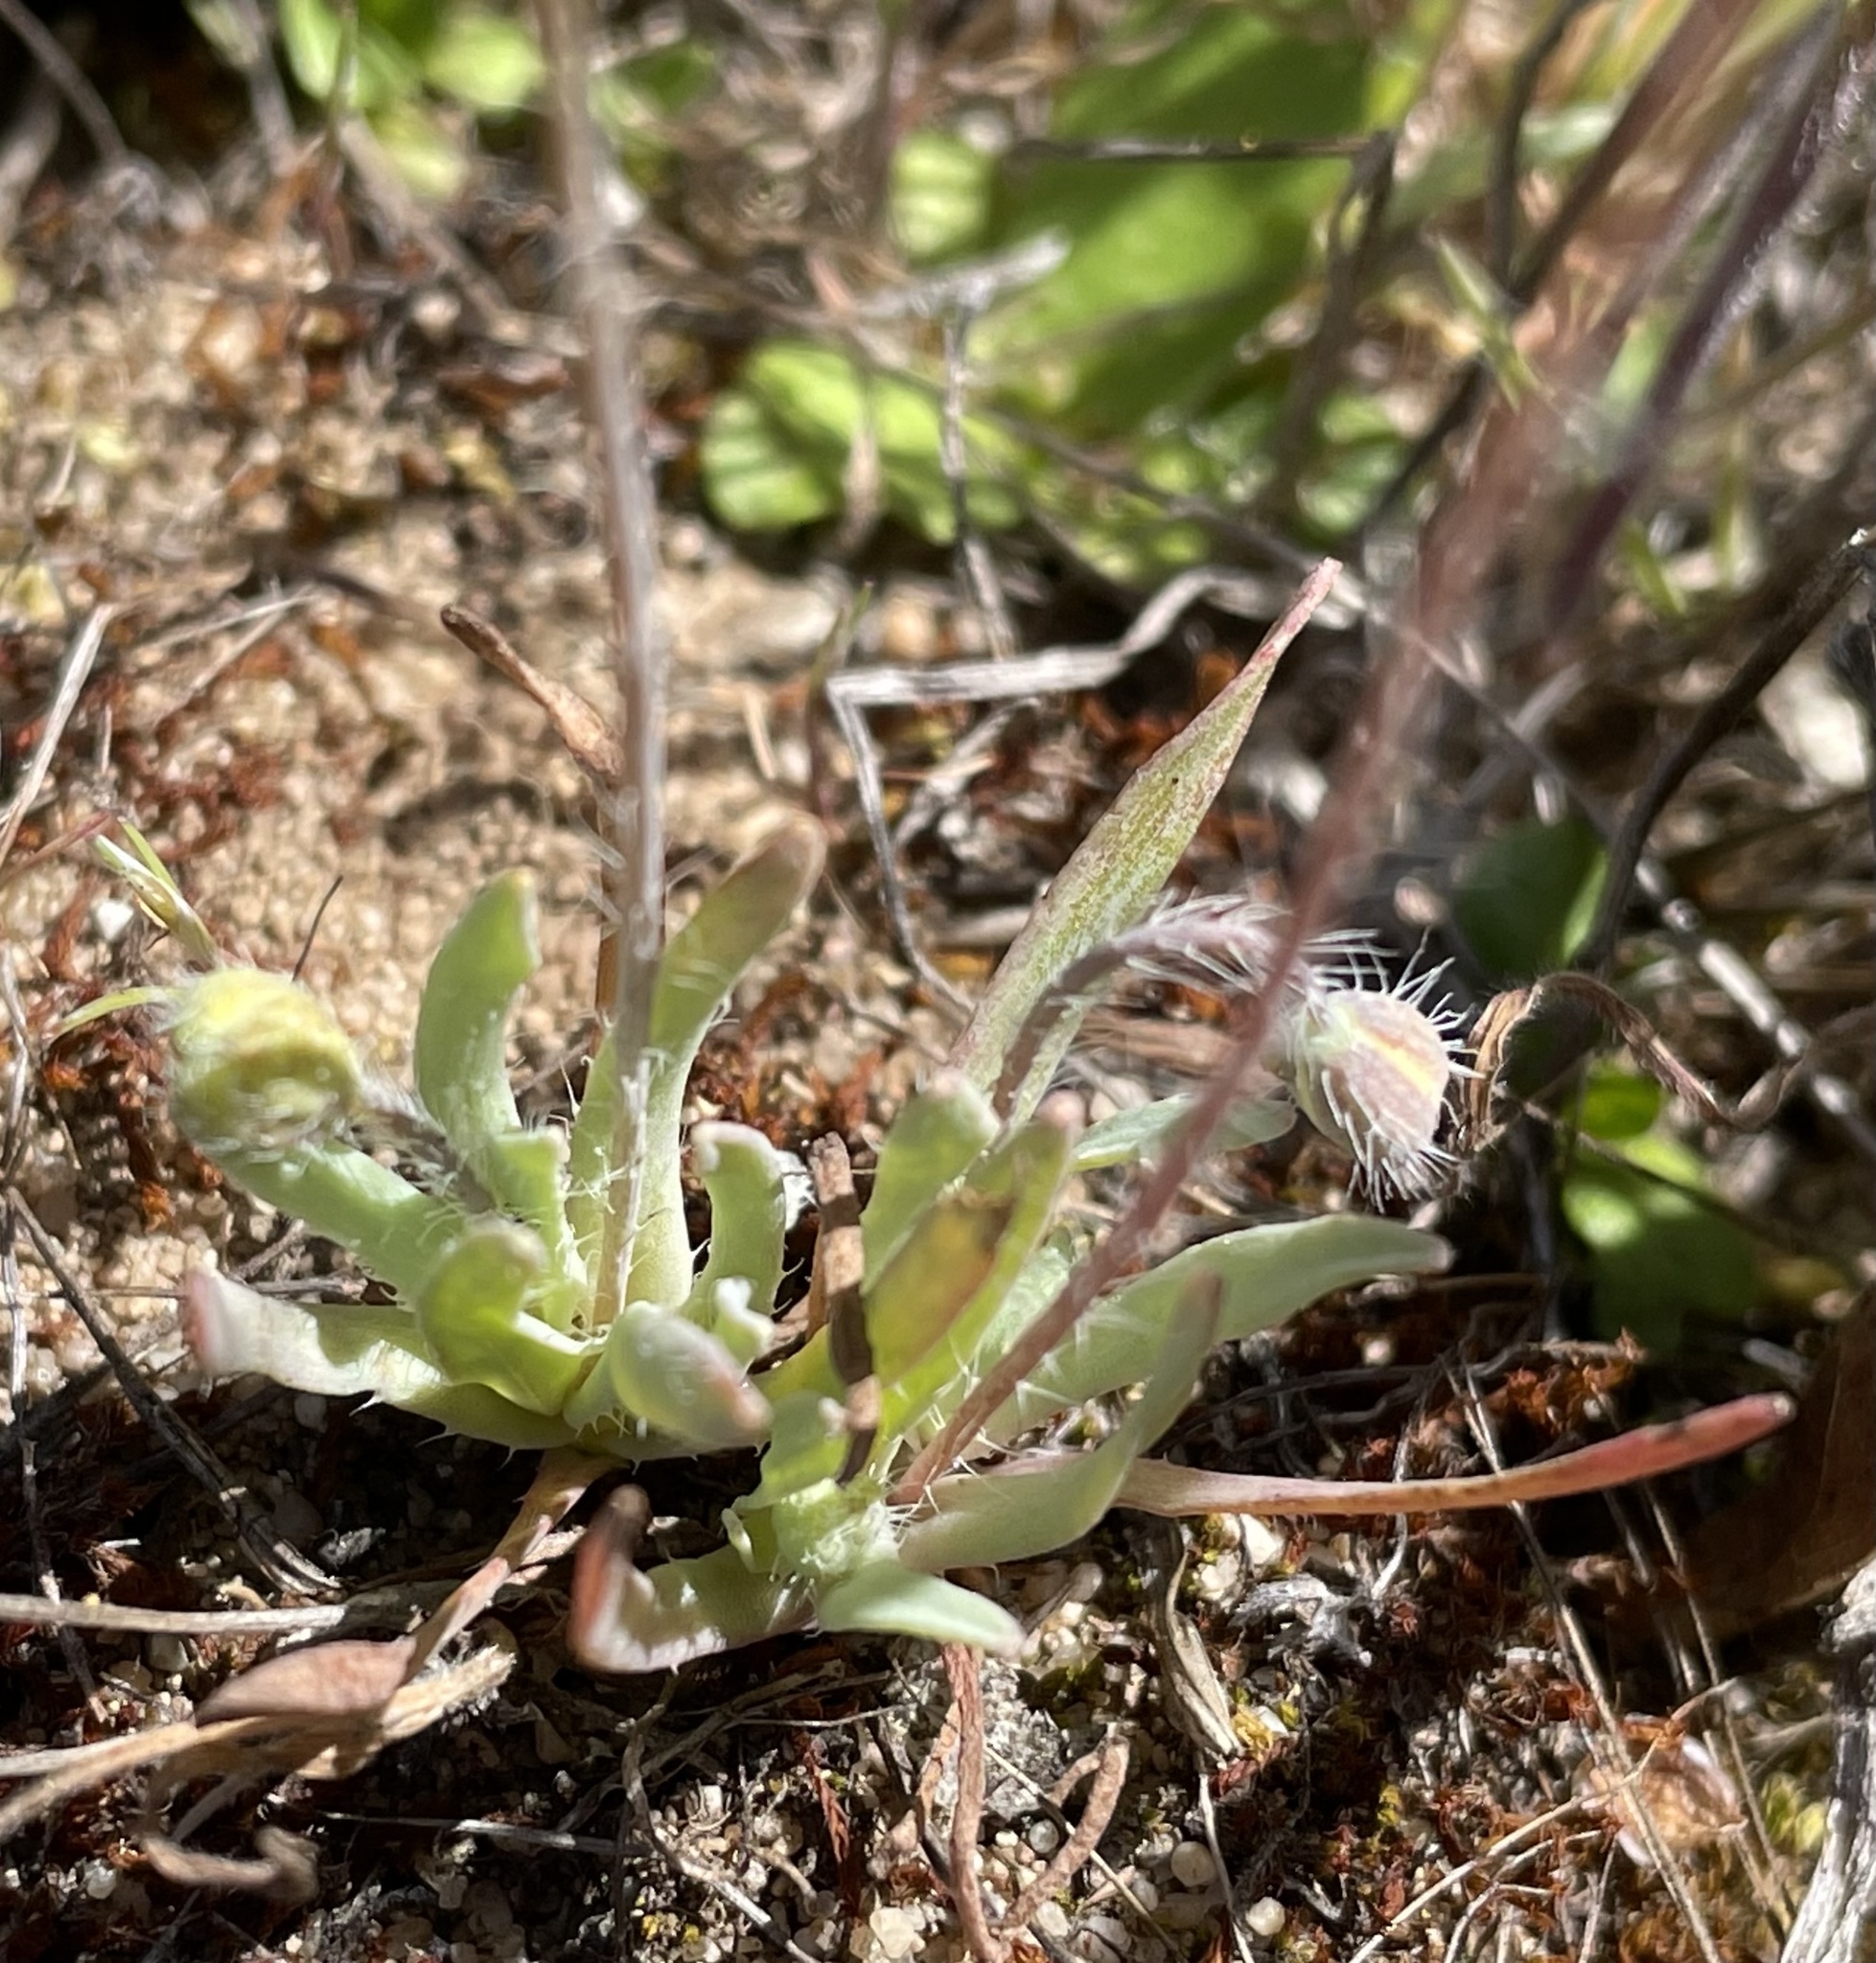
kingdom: Plantae
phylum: Tracheophyta
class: Magnoliopsida
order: Ranunculales
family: Papaveraceae
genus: Platystigma
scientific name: Platystigma lineare
